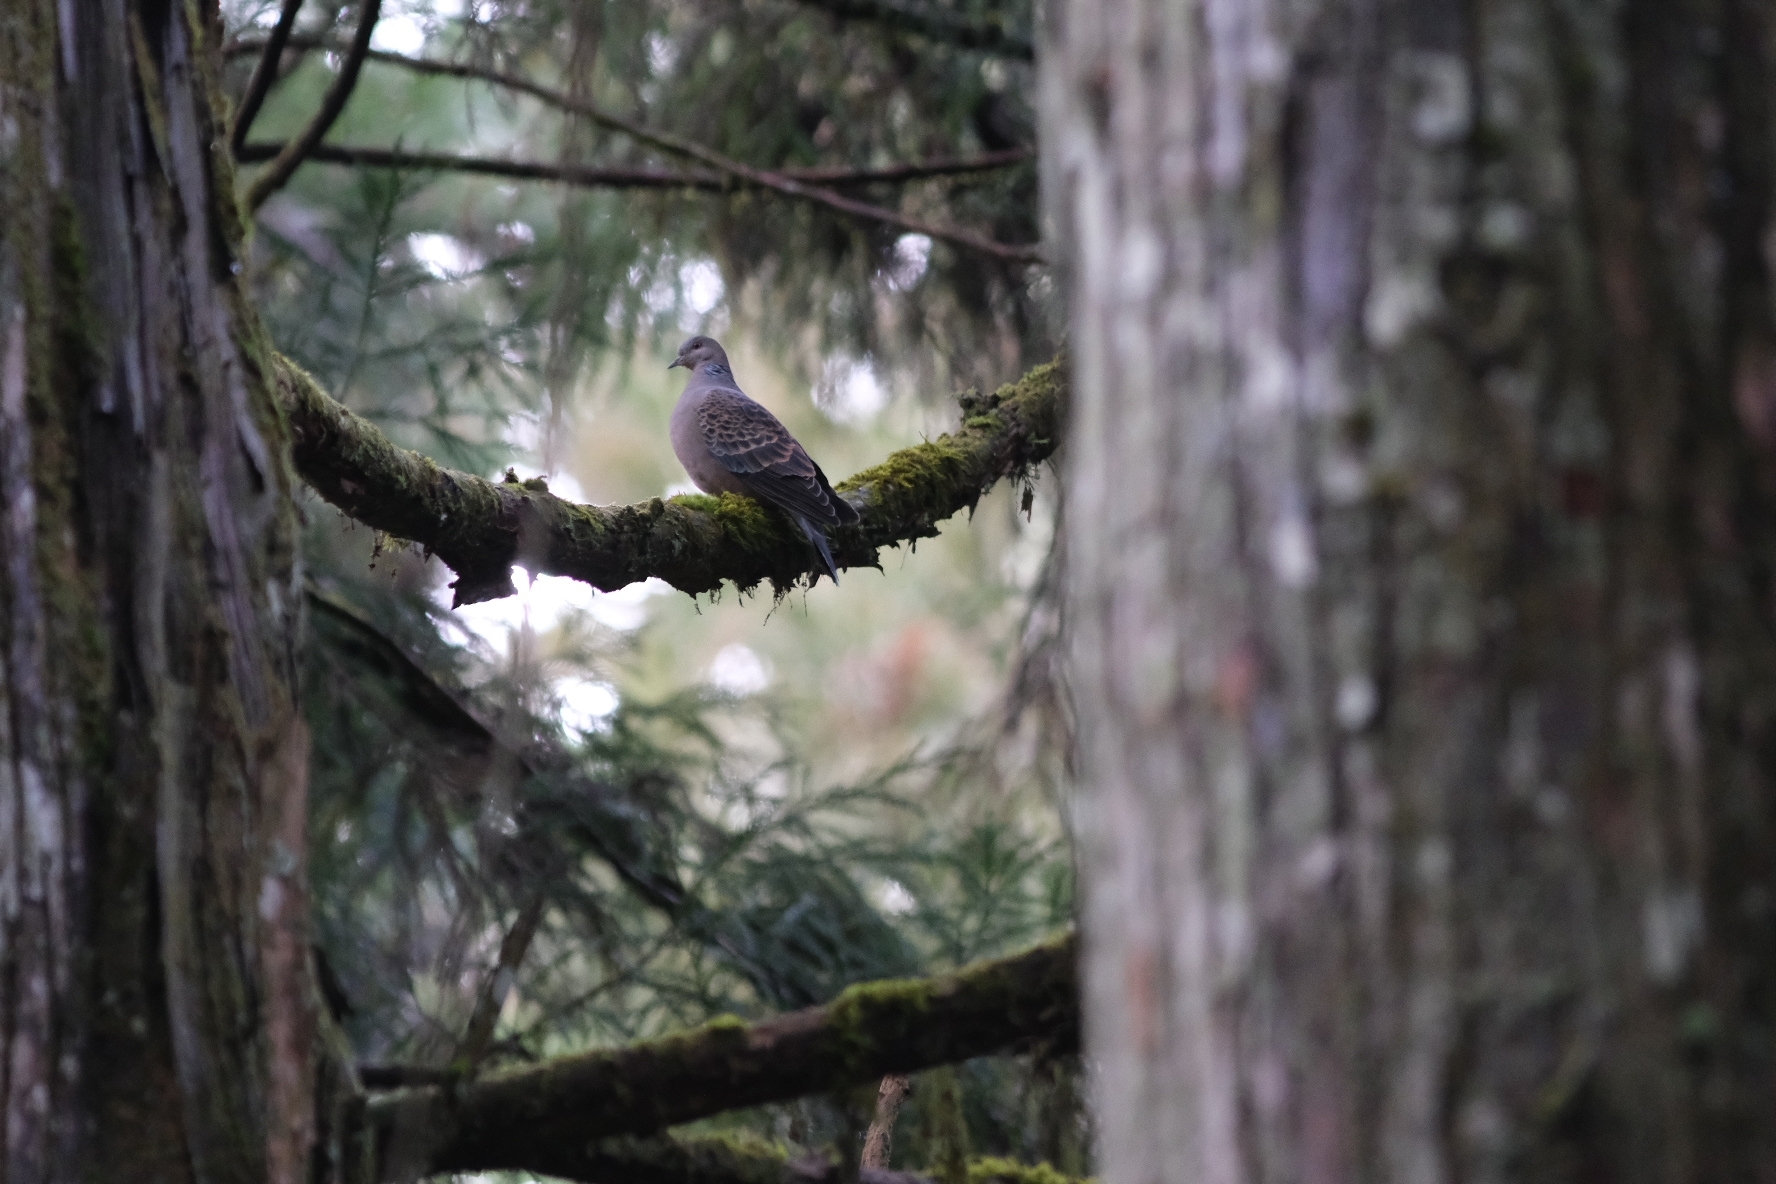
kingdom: Animalia
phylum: Chordata
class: Aves
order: Columbiformes
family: Columbidae
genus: Streptopelia
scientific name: Streptopelia orientalis
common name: Oriental turtle dove
